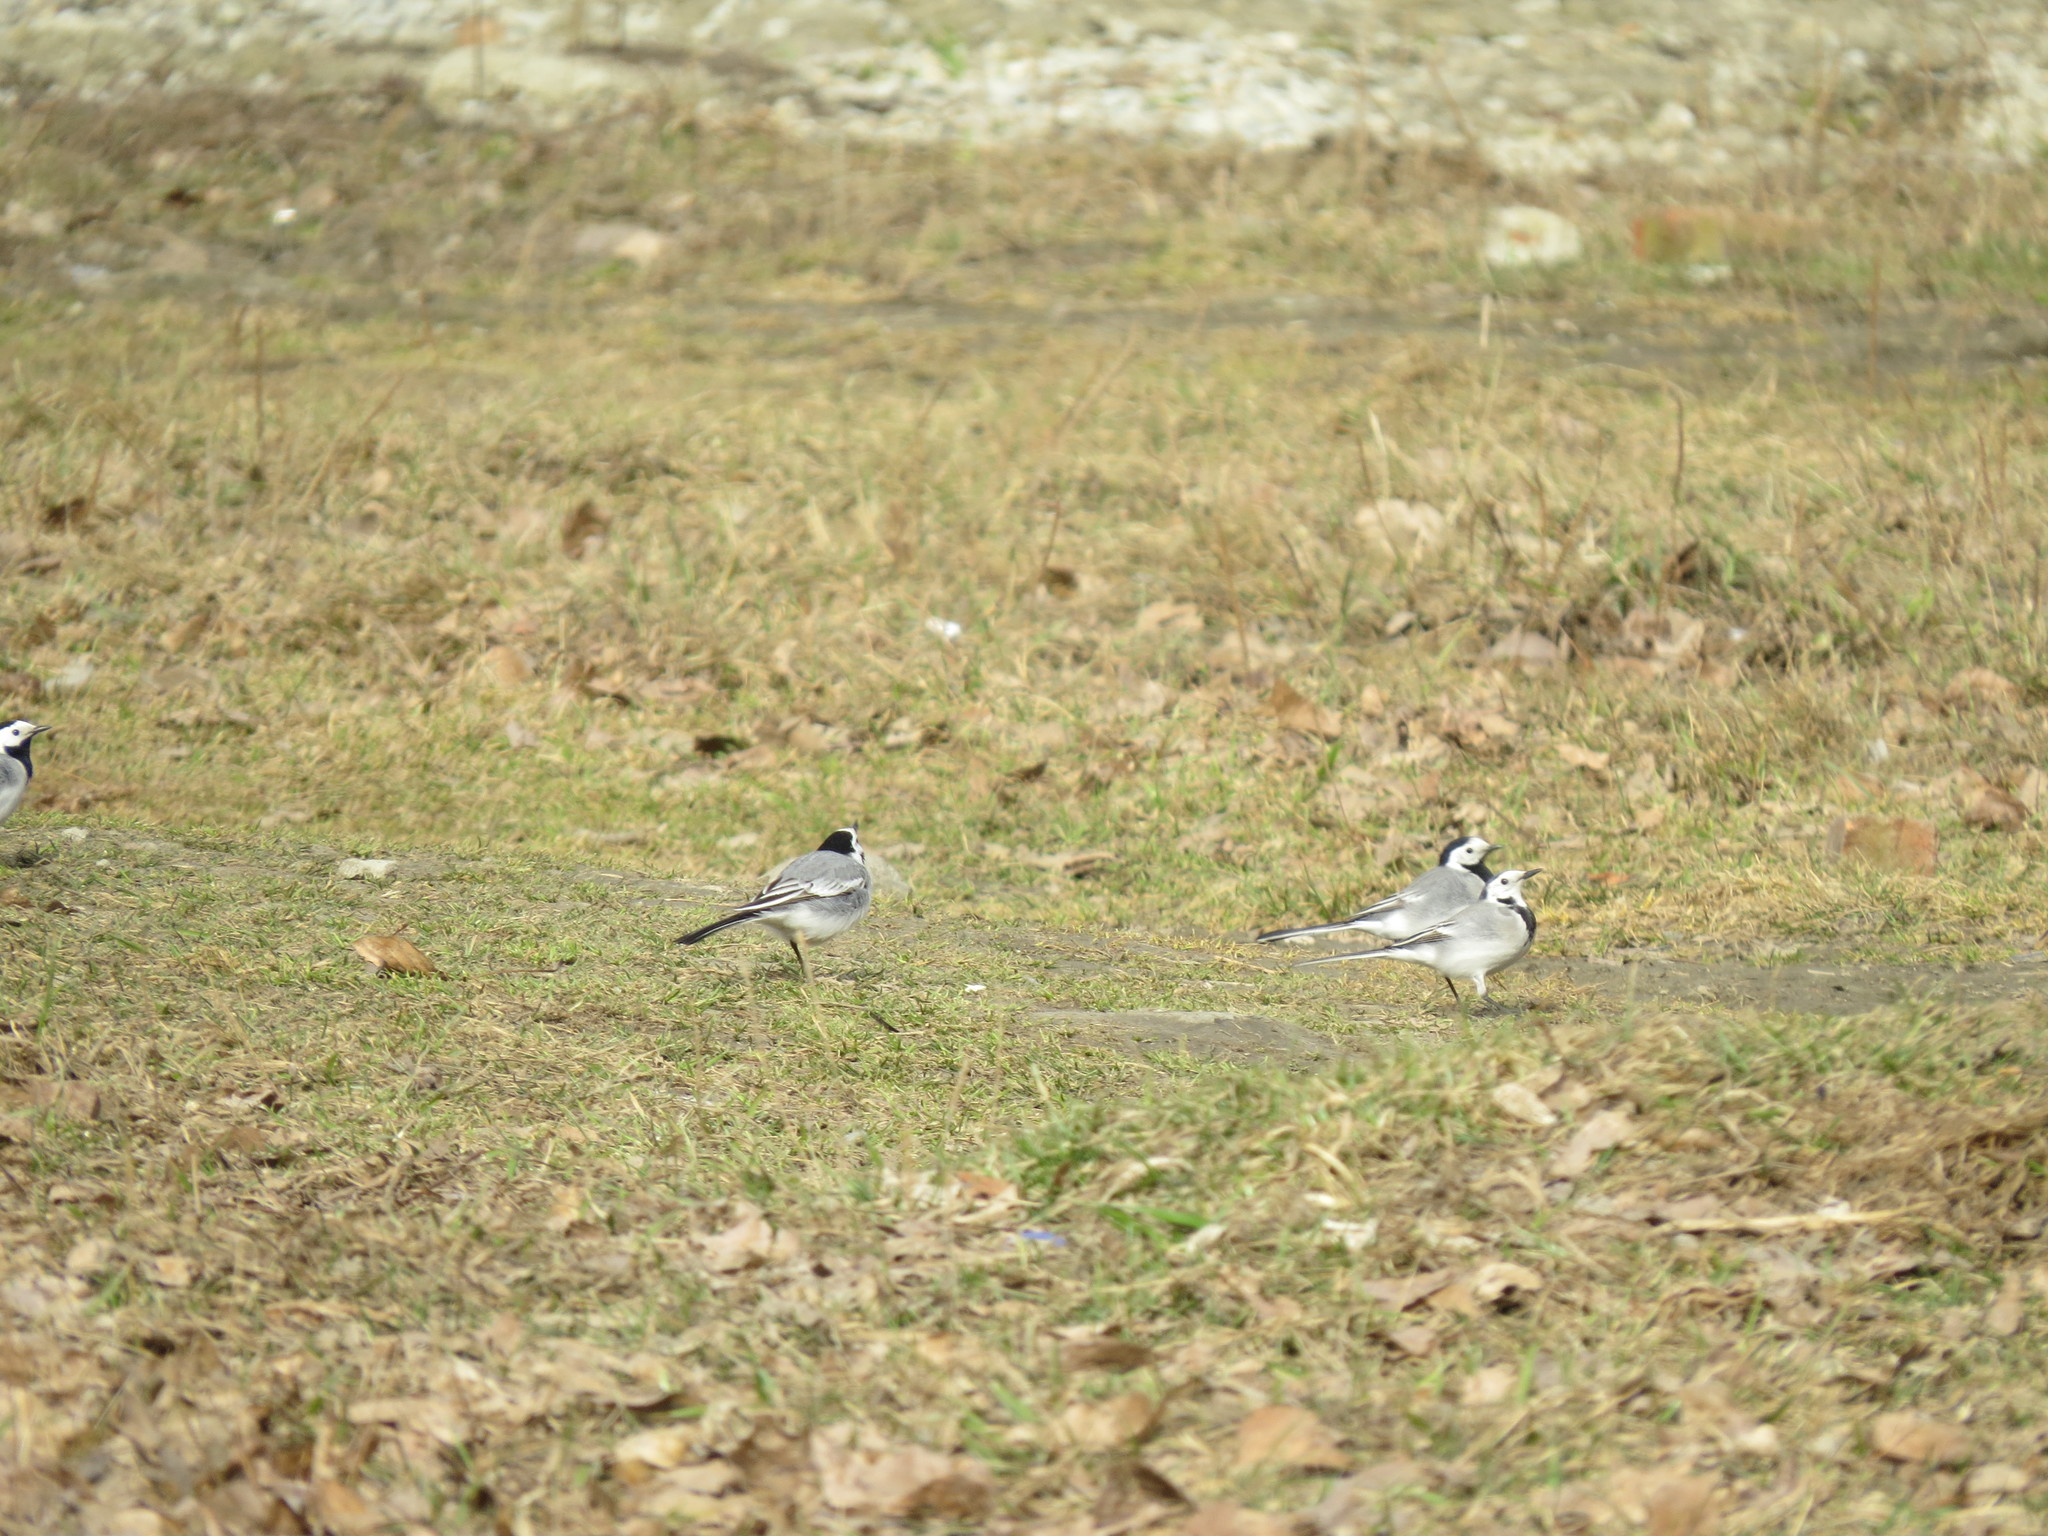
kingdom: Animalia
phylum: Chordata
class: Aves
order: Passeriformes
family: Motacillidae
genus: Motacilla
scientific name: Motacilla alba
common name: White wagtail
